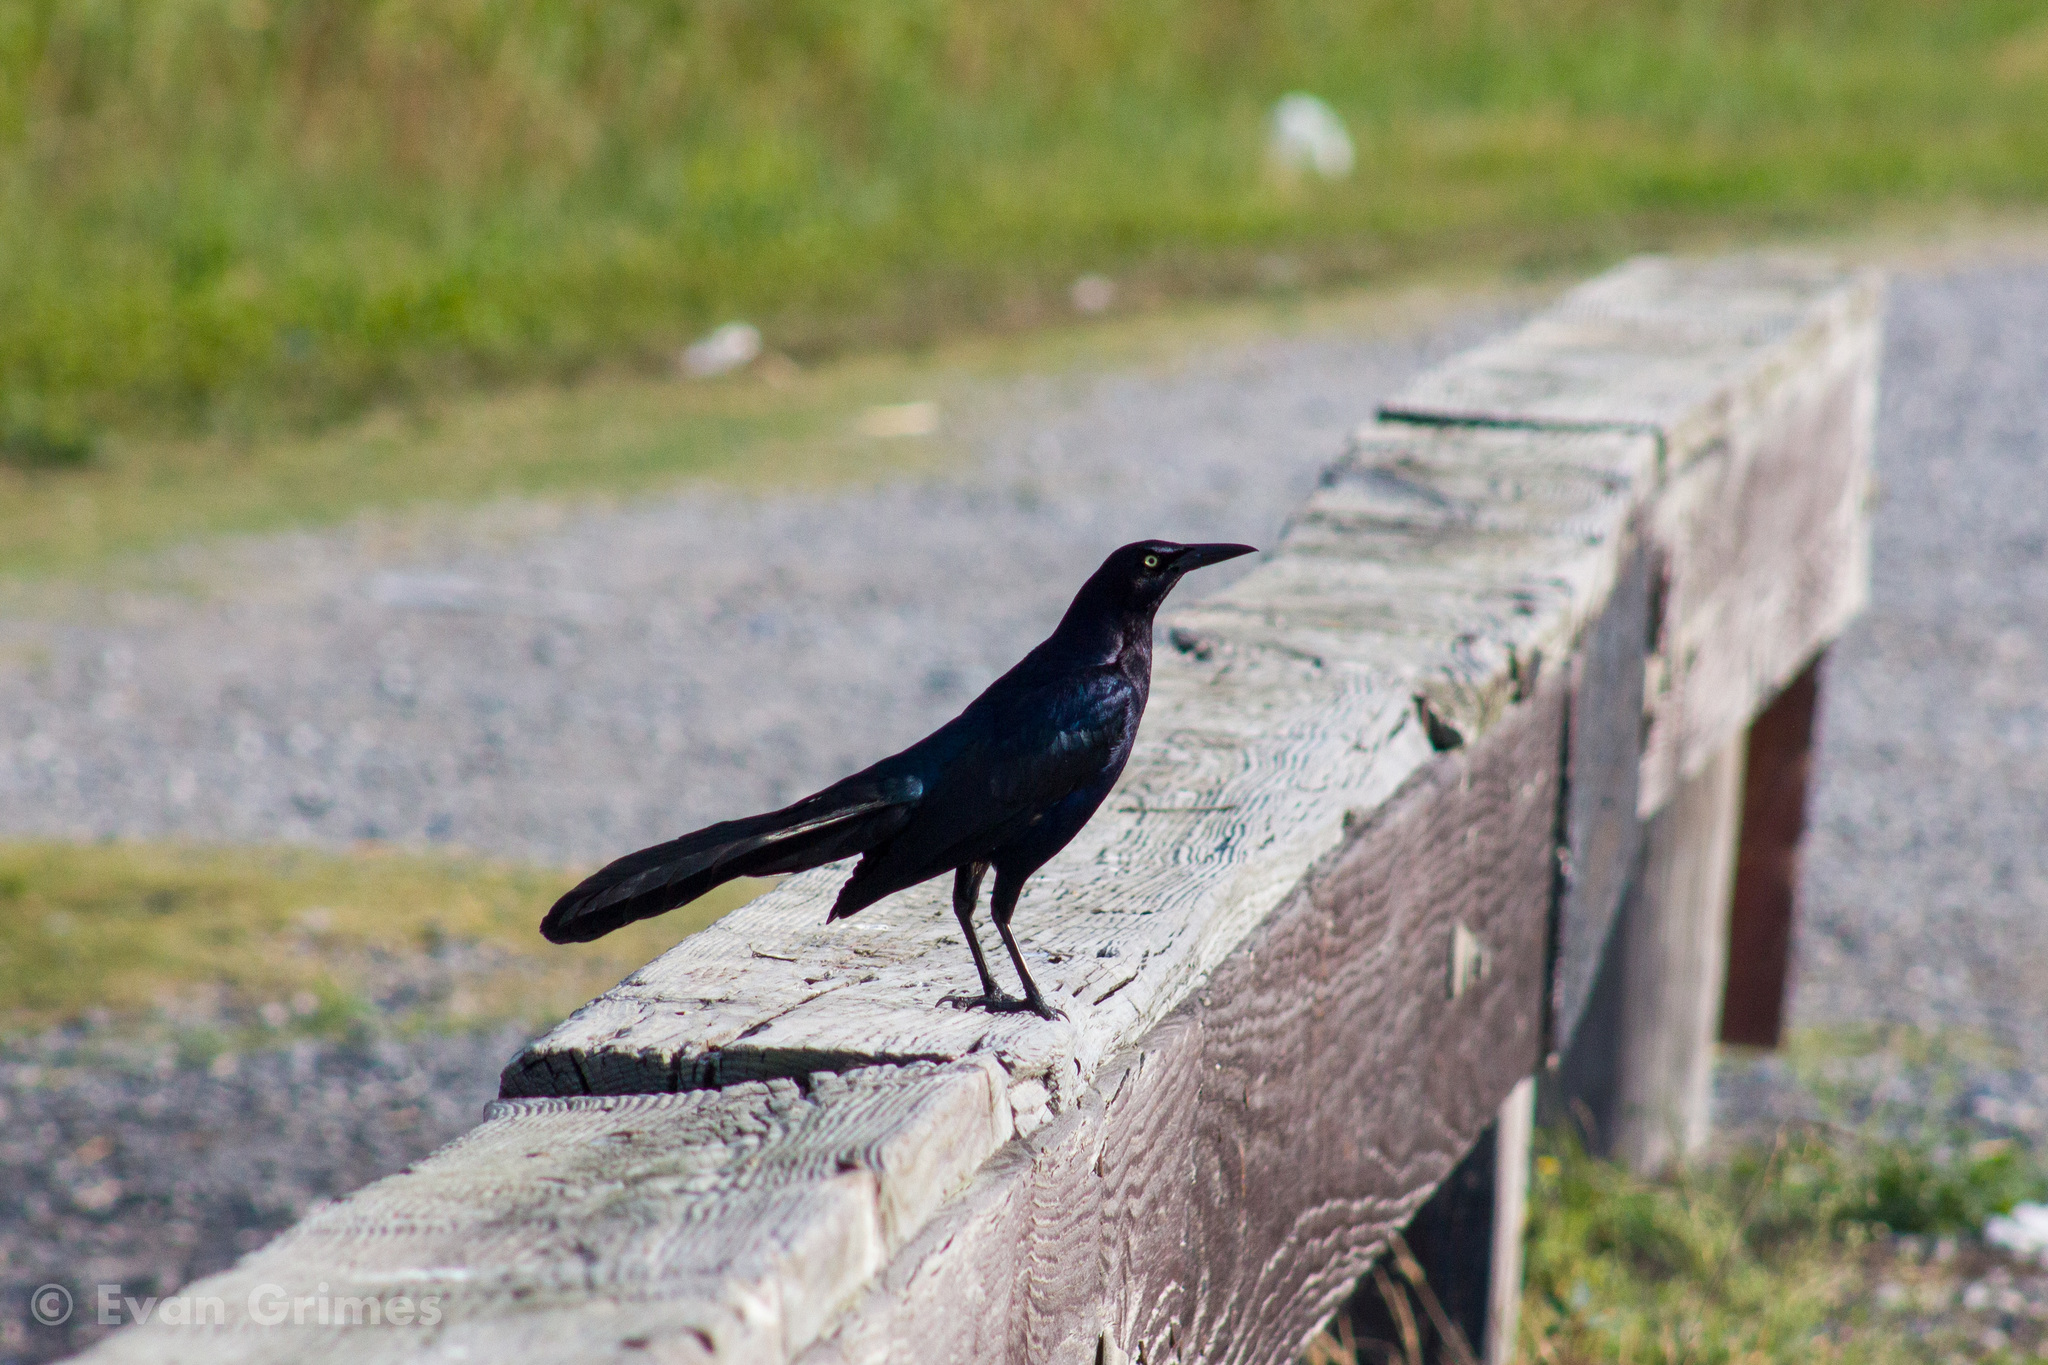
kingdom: Animalia
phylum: Chordata
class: Aves
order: Passeriformes
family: Icteridae
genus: Quiscalus
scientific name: Quiscalus mexicanus
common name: Great-tailed grackle
